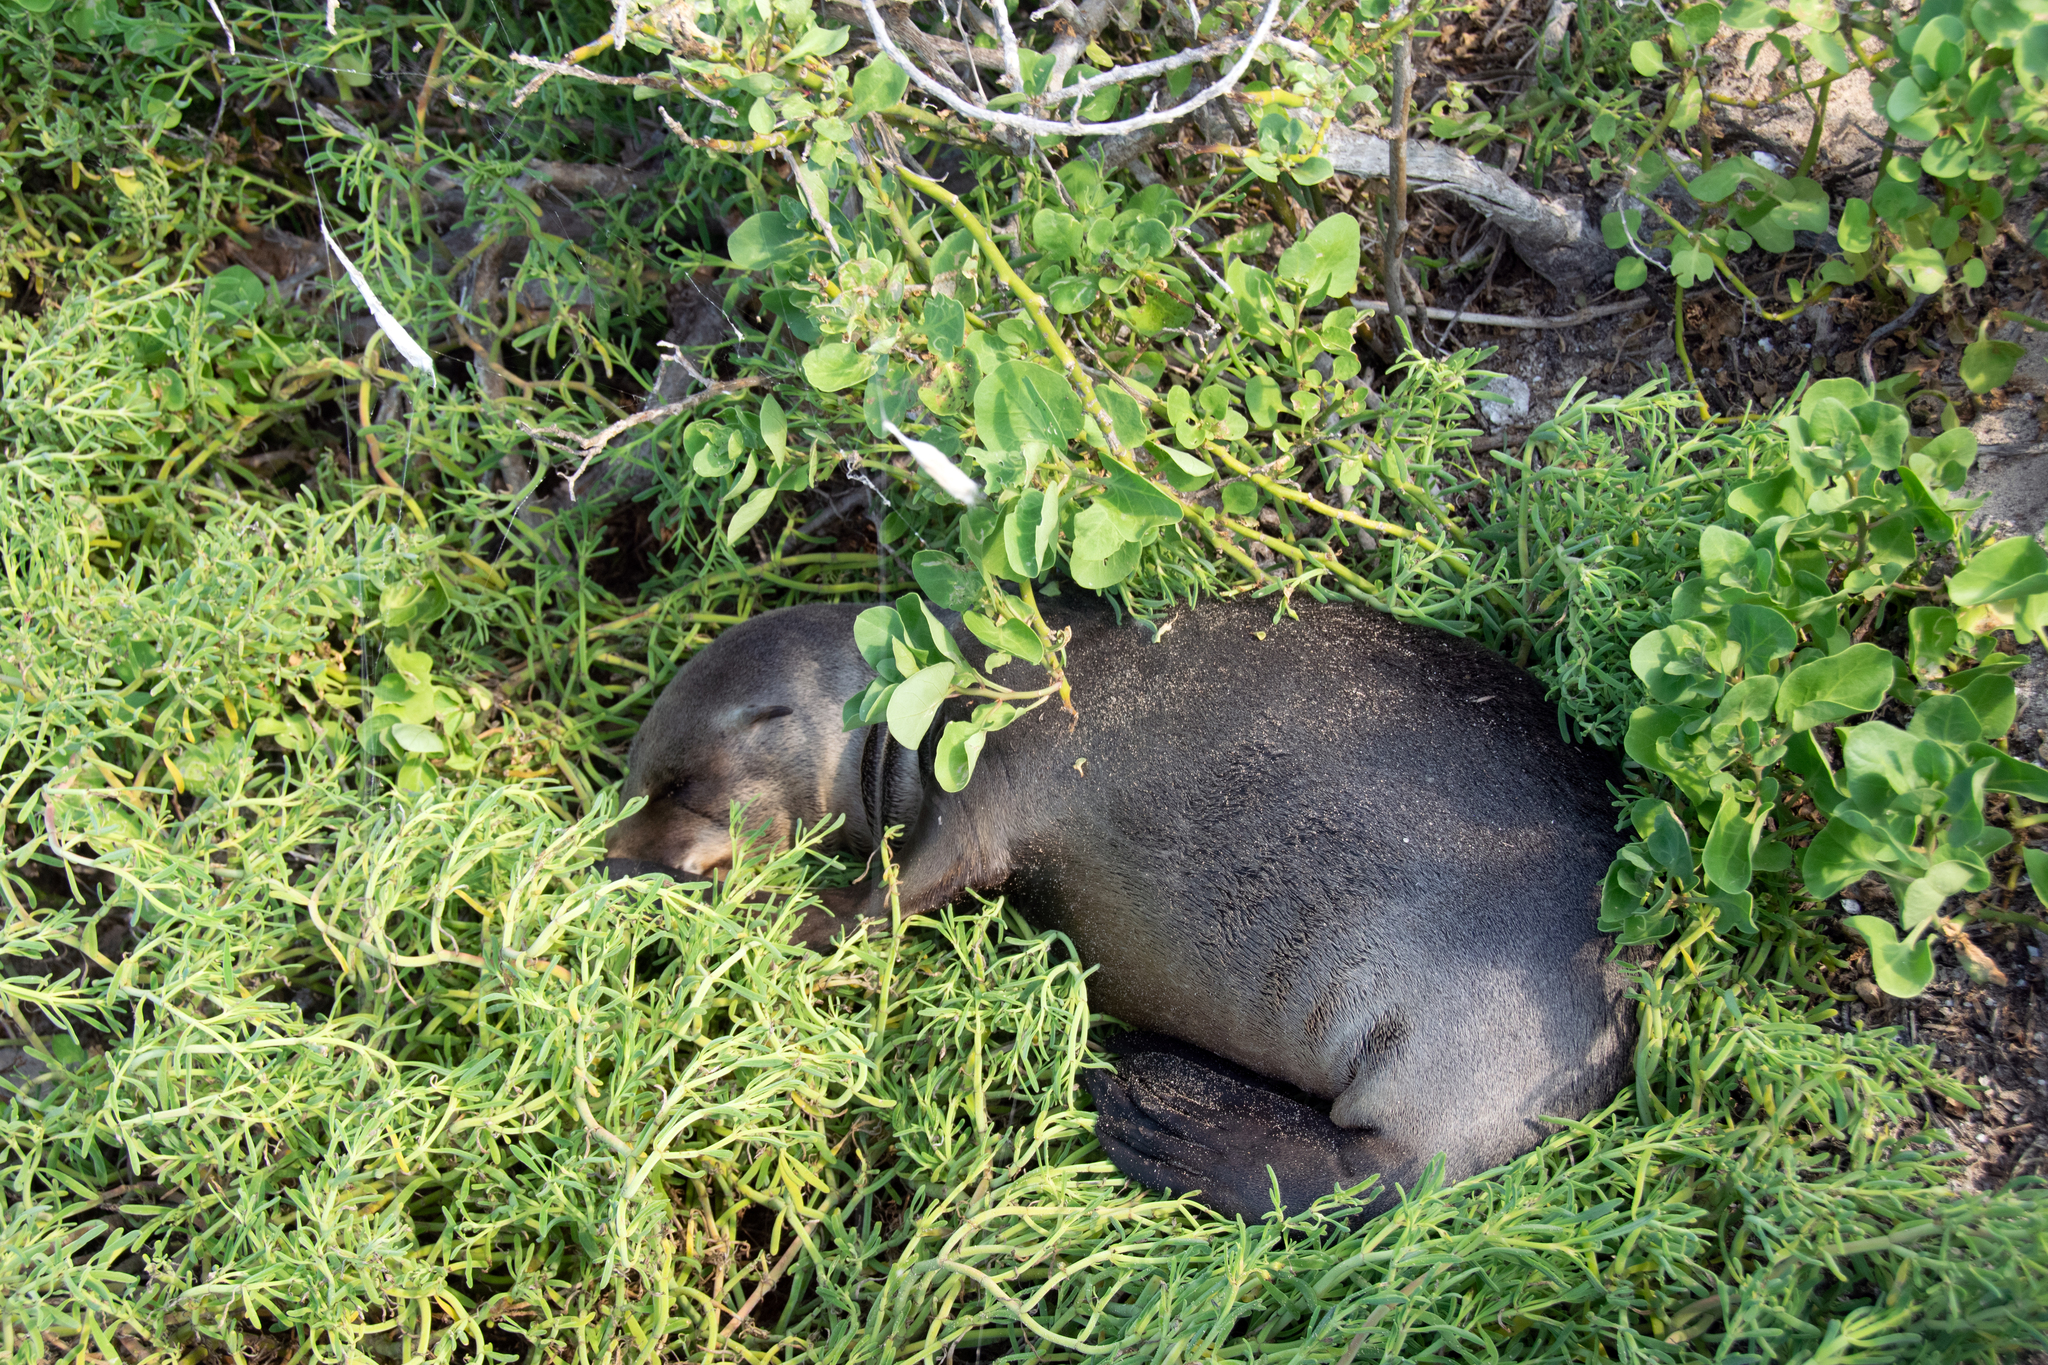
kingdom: Animalia
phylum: Chordata
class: Mammalia
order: Carnivora
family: Otariidae
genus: Zalophus
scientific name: Zalophus wollebaeki
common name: Galapagos sea lion
